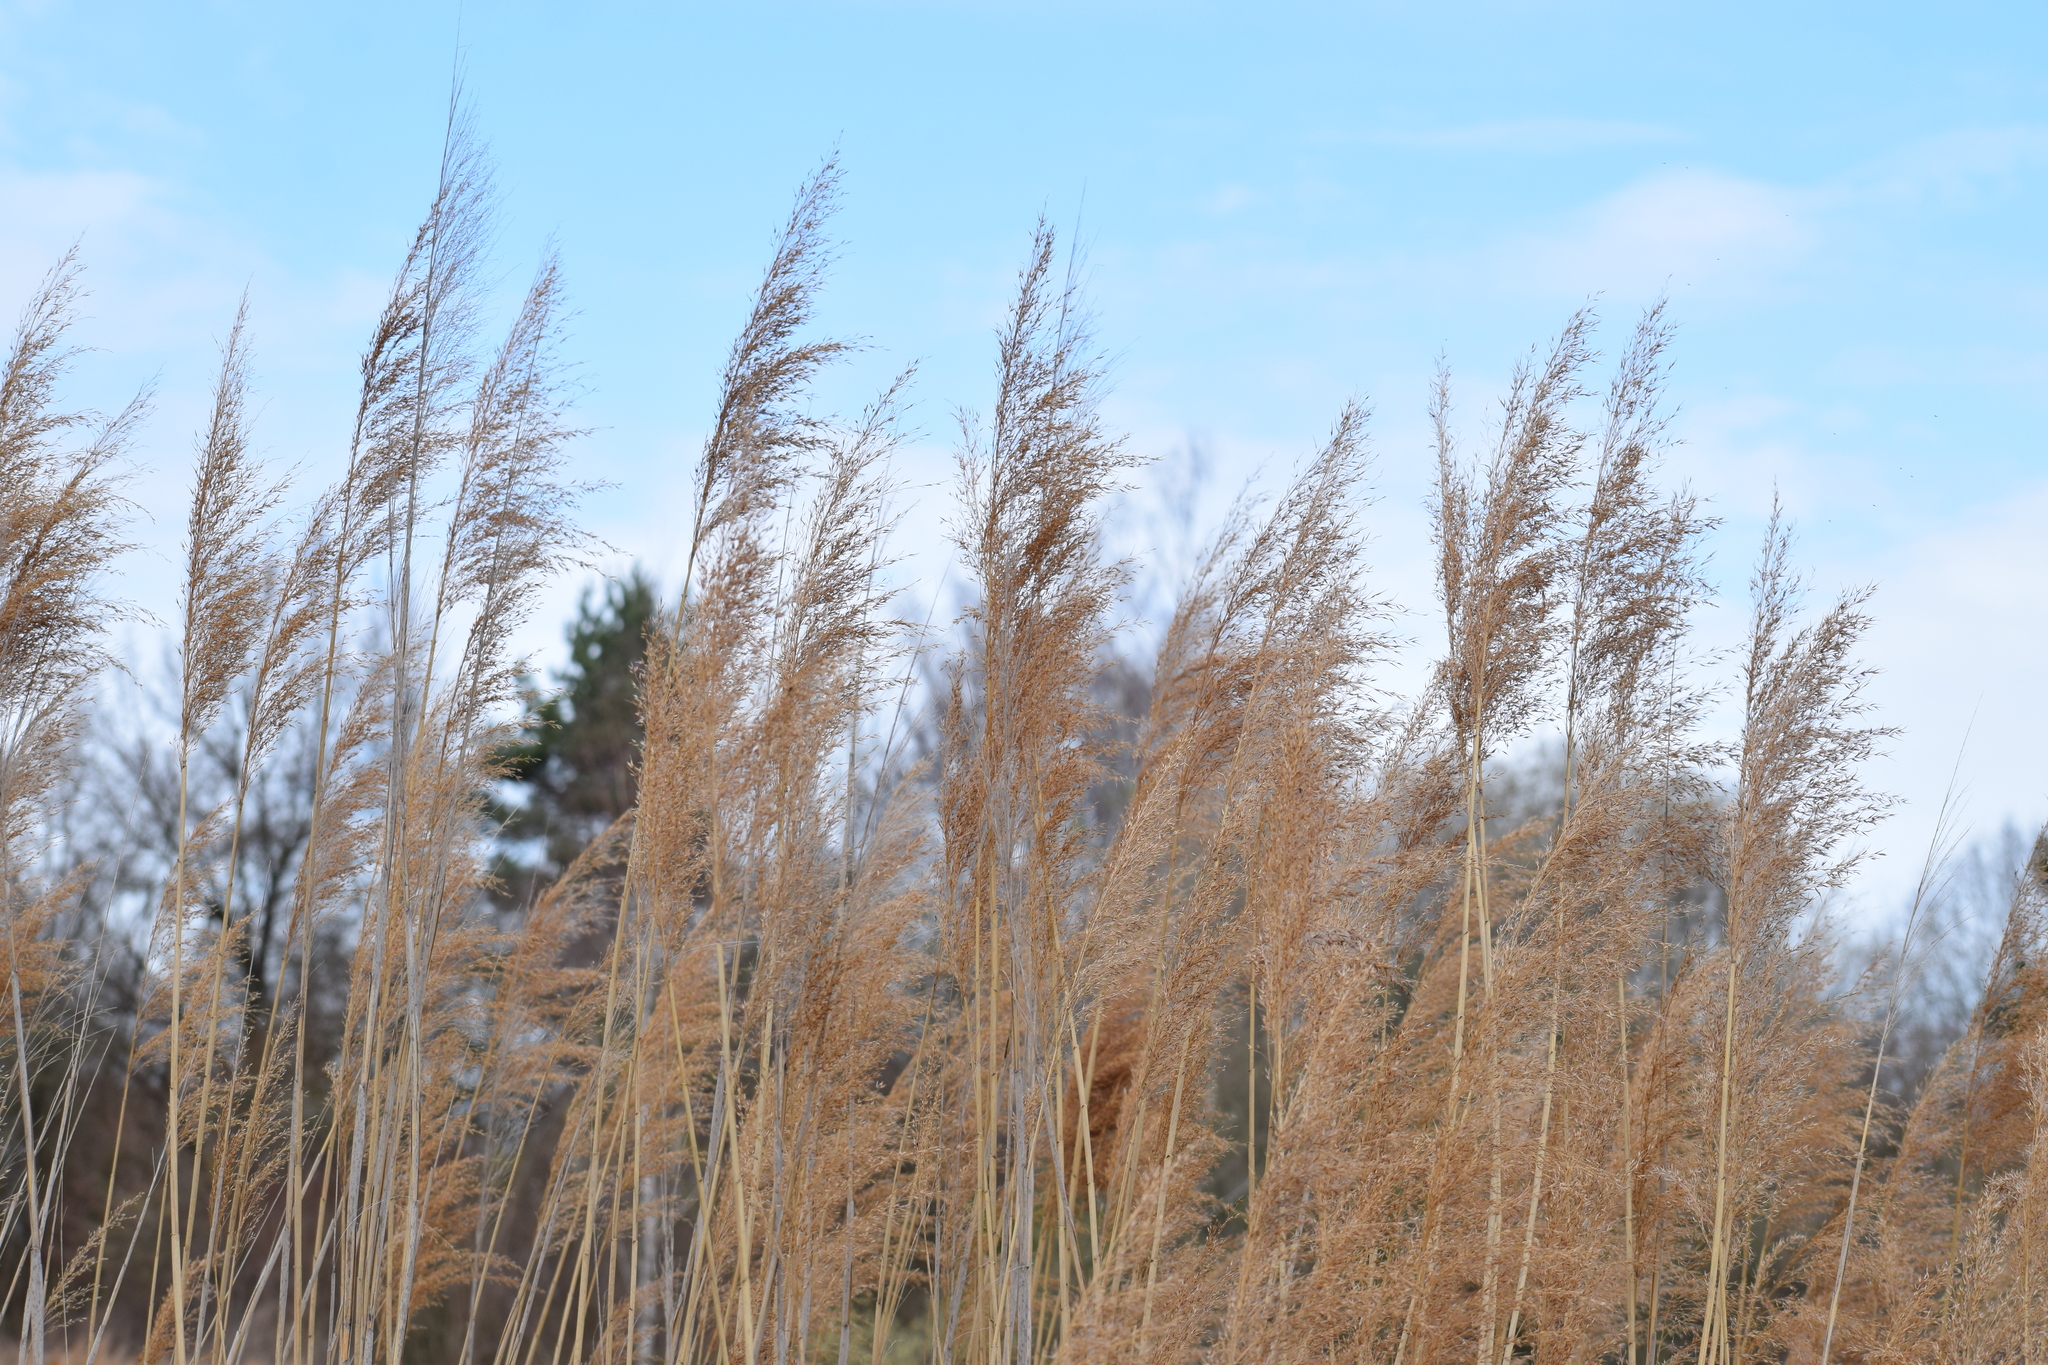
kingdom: Plantae
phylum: Tracheophyta
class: Liliopsida
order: Poales
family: Poaceae
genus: Phragmites
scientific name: Phragmites australis
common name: Common reed
